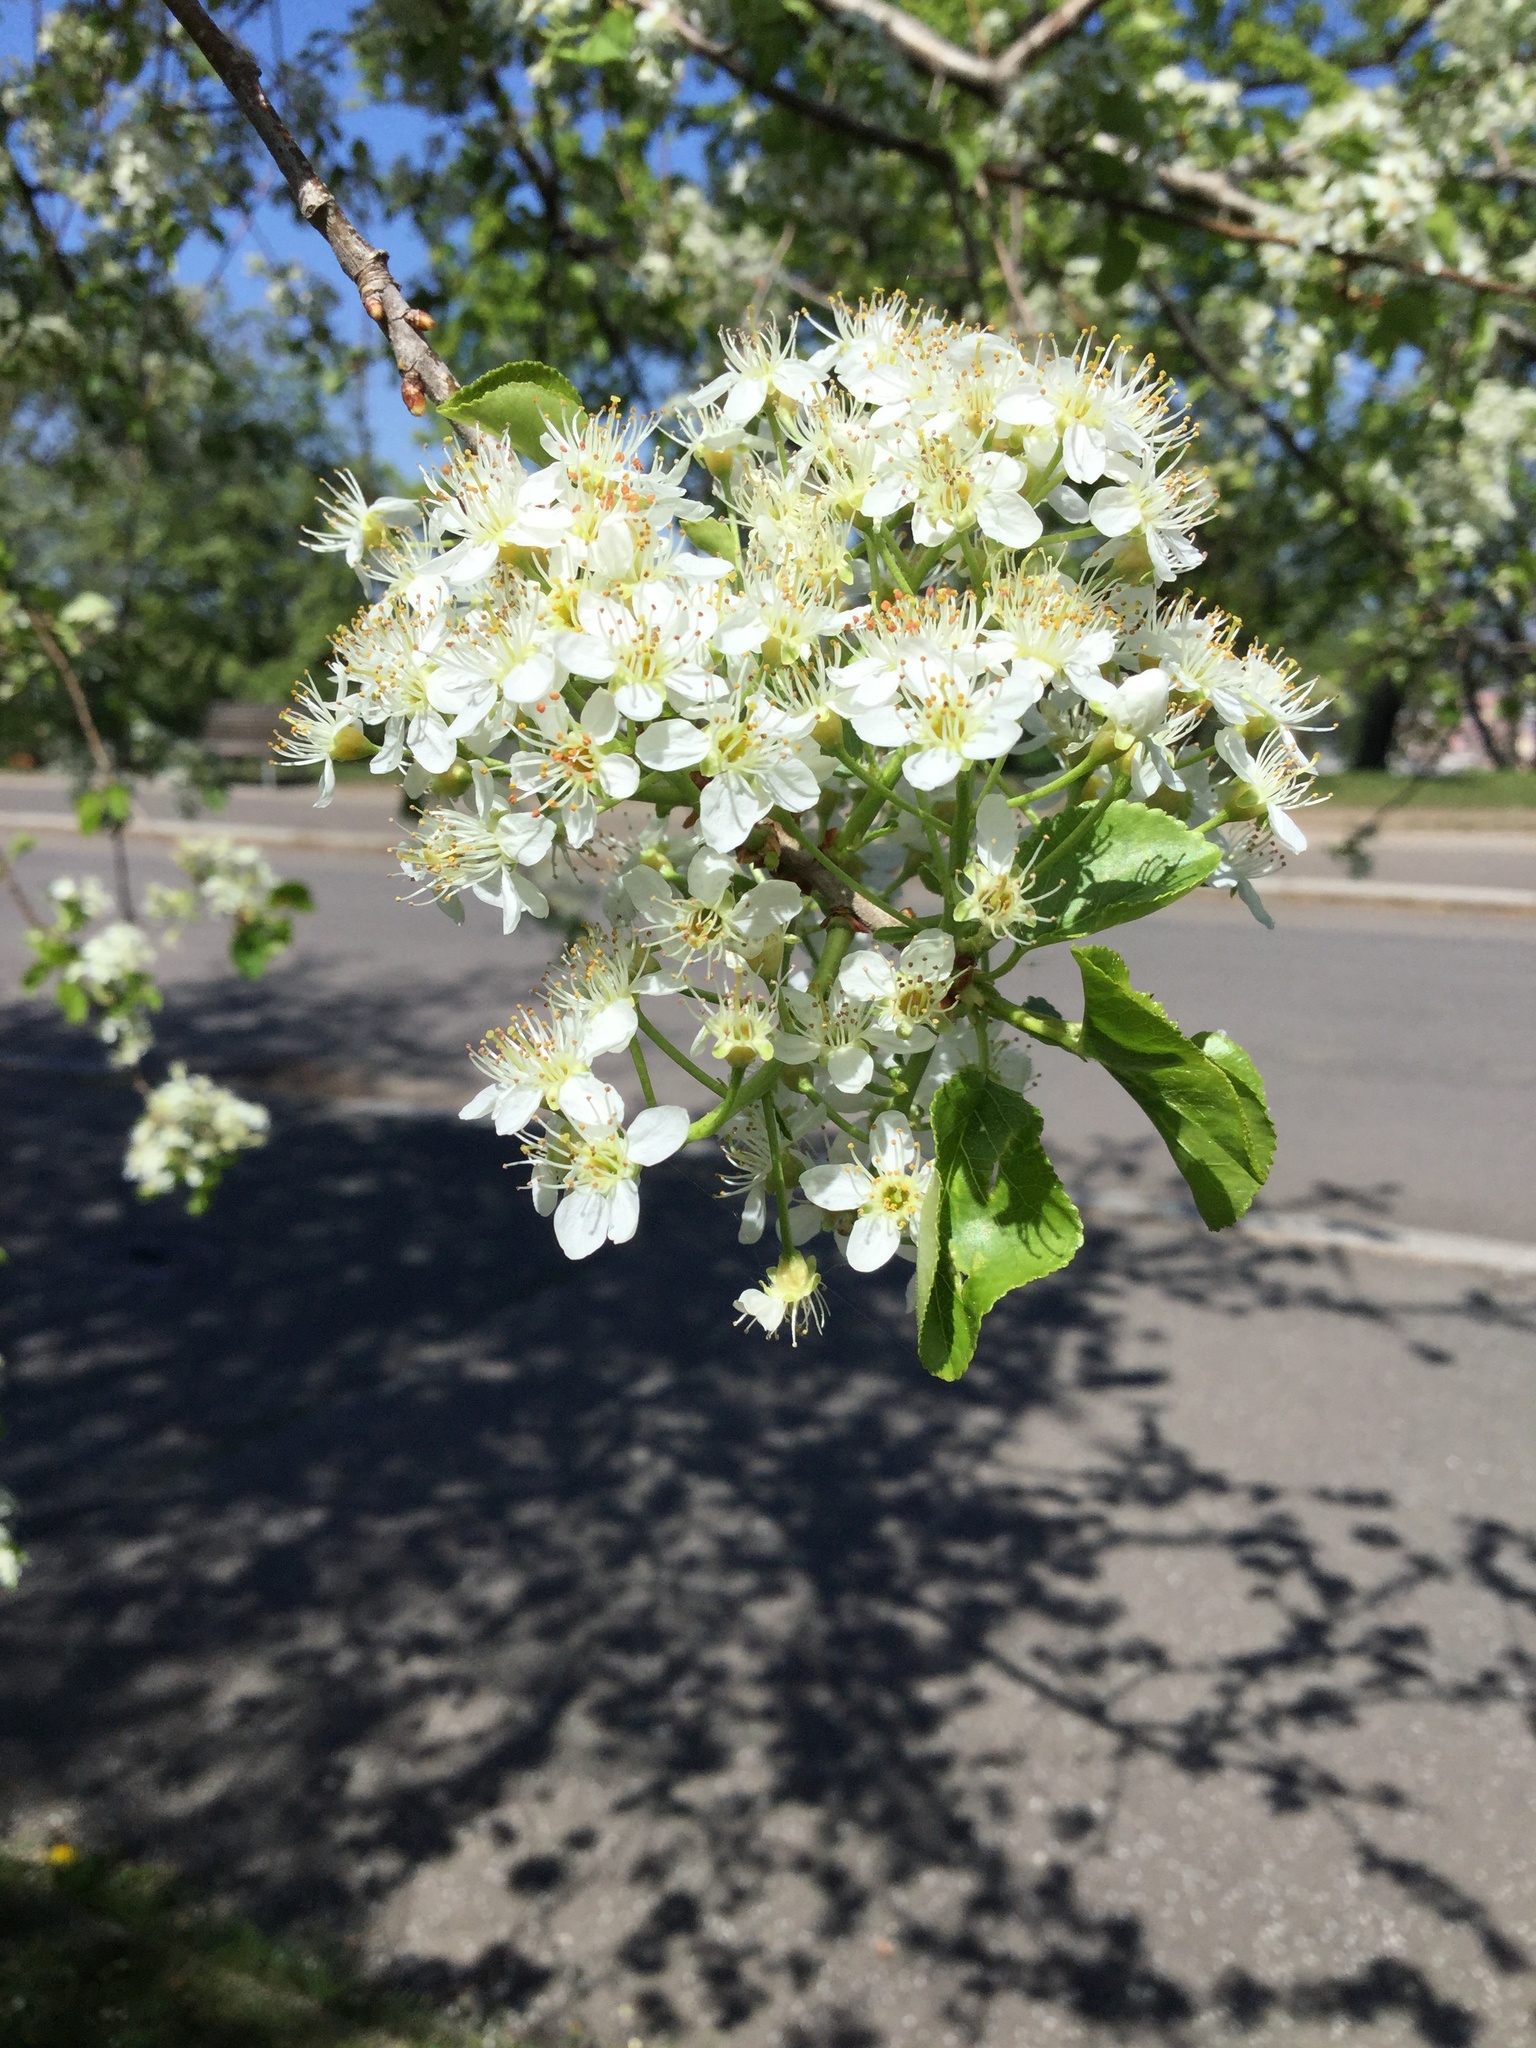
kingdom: Plantae
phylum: Tracheophyta
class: Magnoliopsida
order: Rosales
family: Rosaceae
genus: Prunus
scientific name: Prunus mahaleb
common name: Mahaleb cherry
